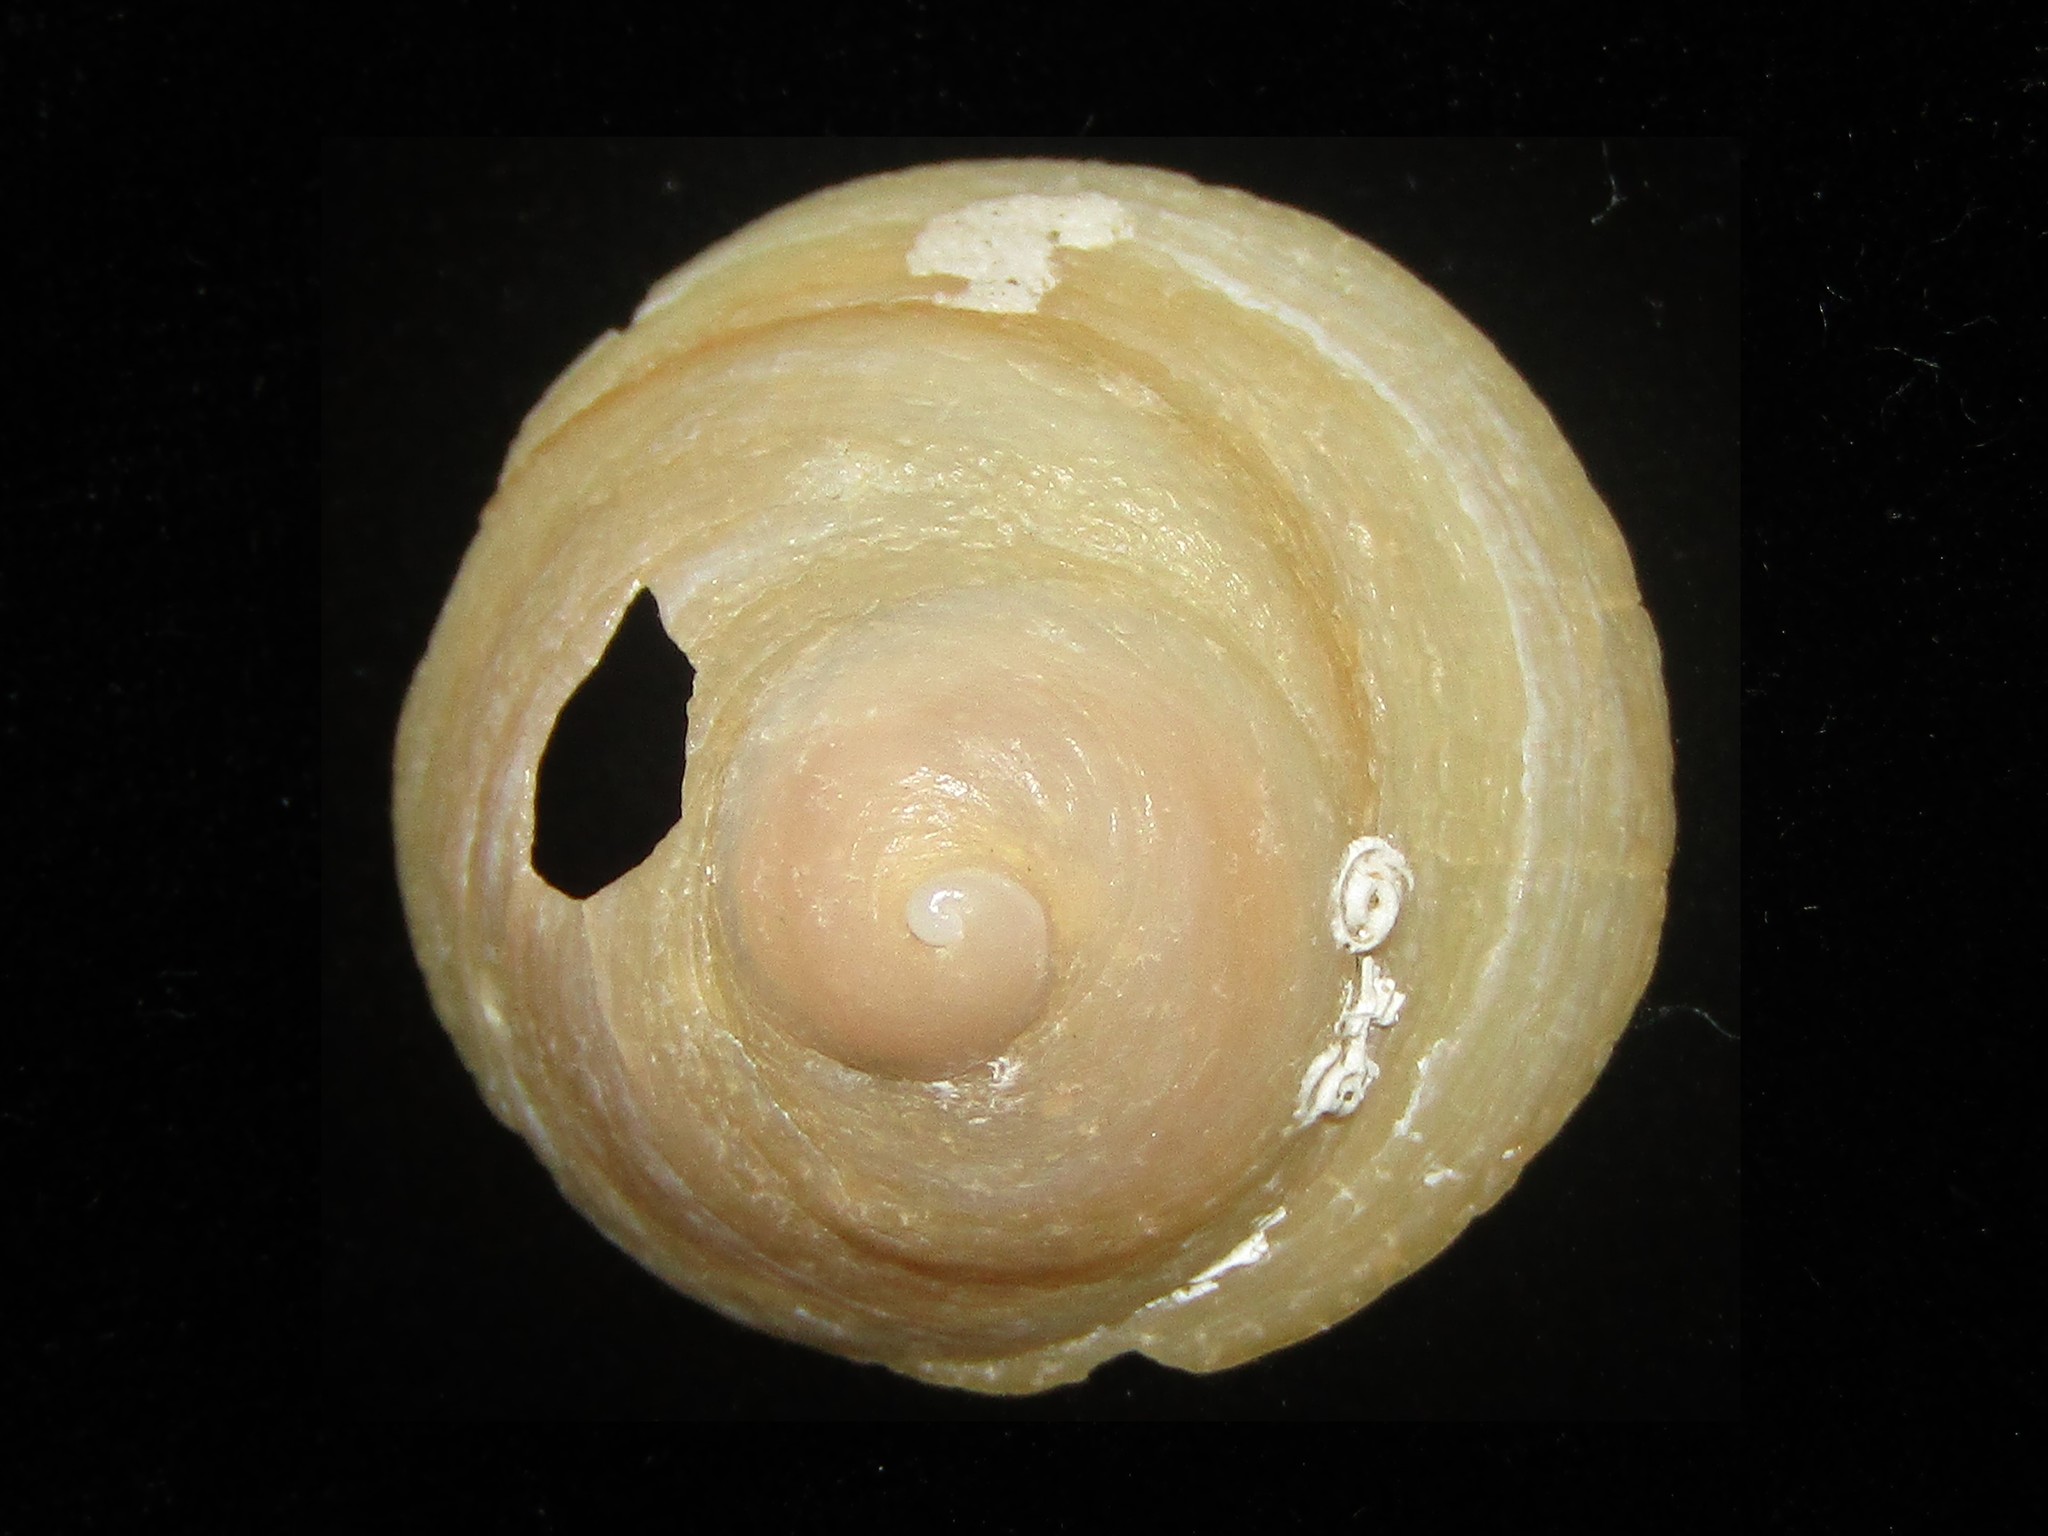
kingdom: Animalia
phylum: Mollusca
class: Gastropoda
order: Littorinimorpha
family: Calyptraeidae
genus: Sigapatella
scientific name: Sigapatella terraenovae
